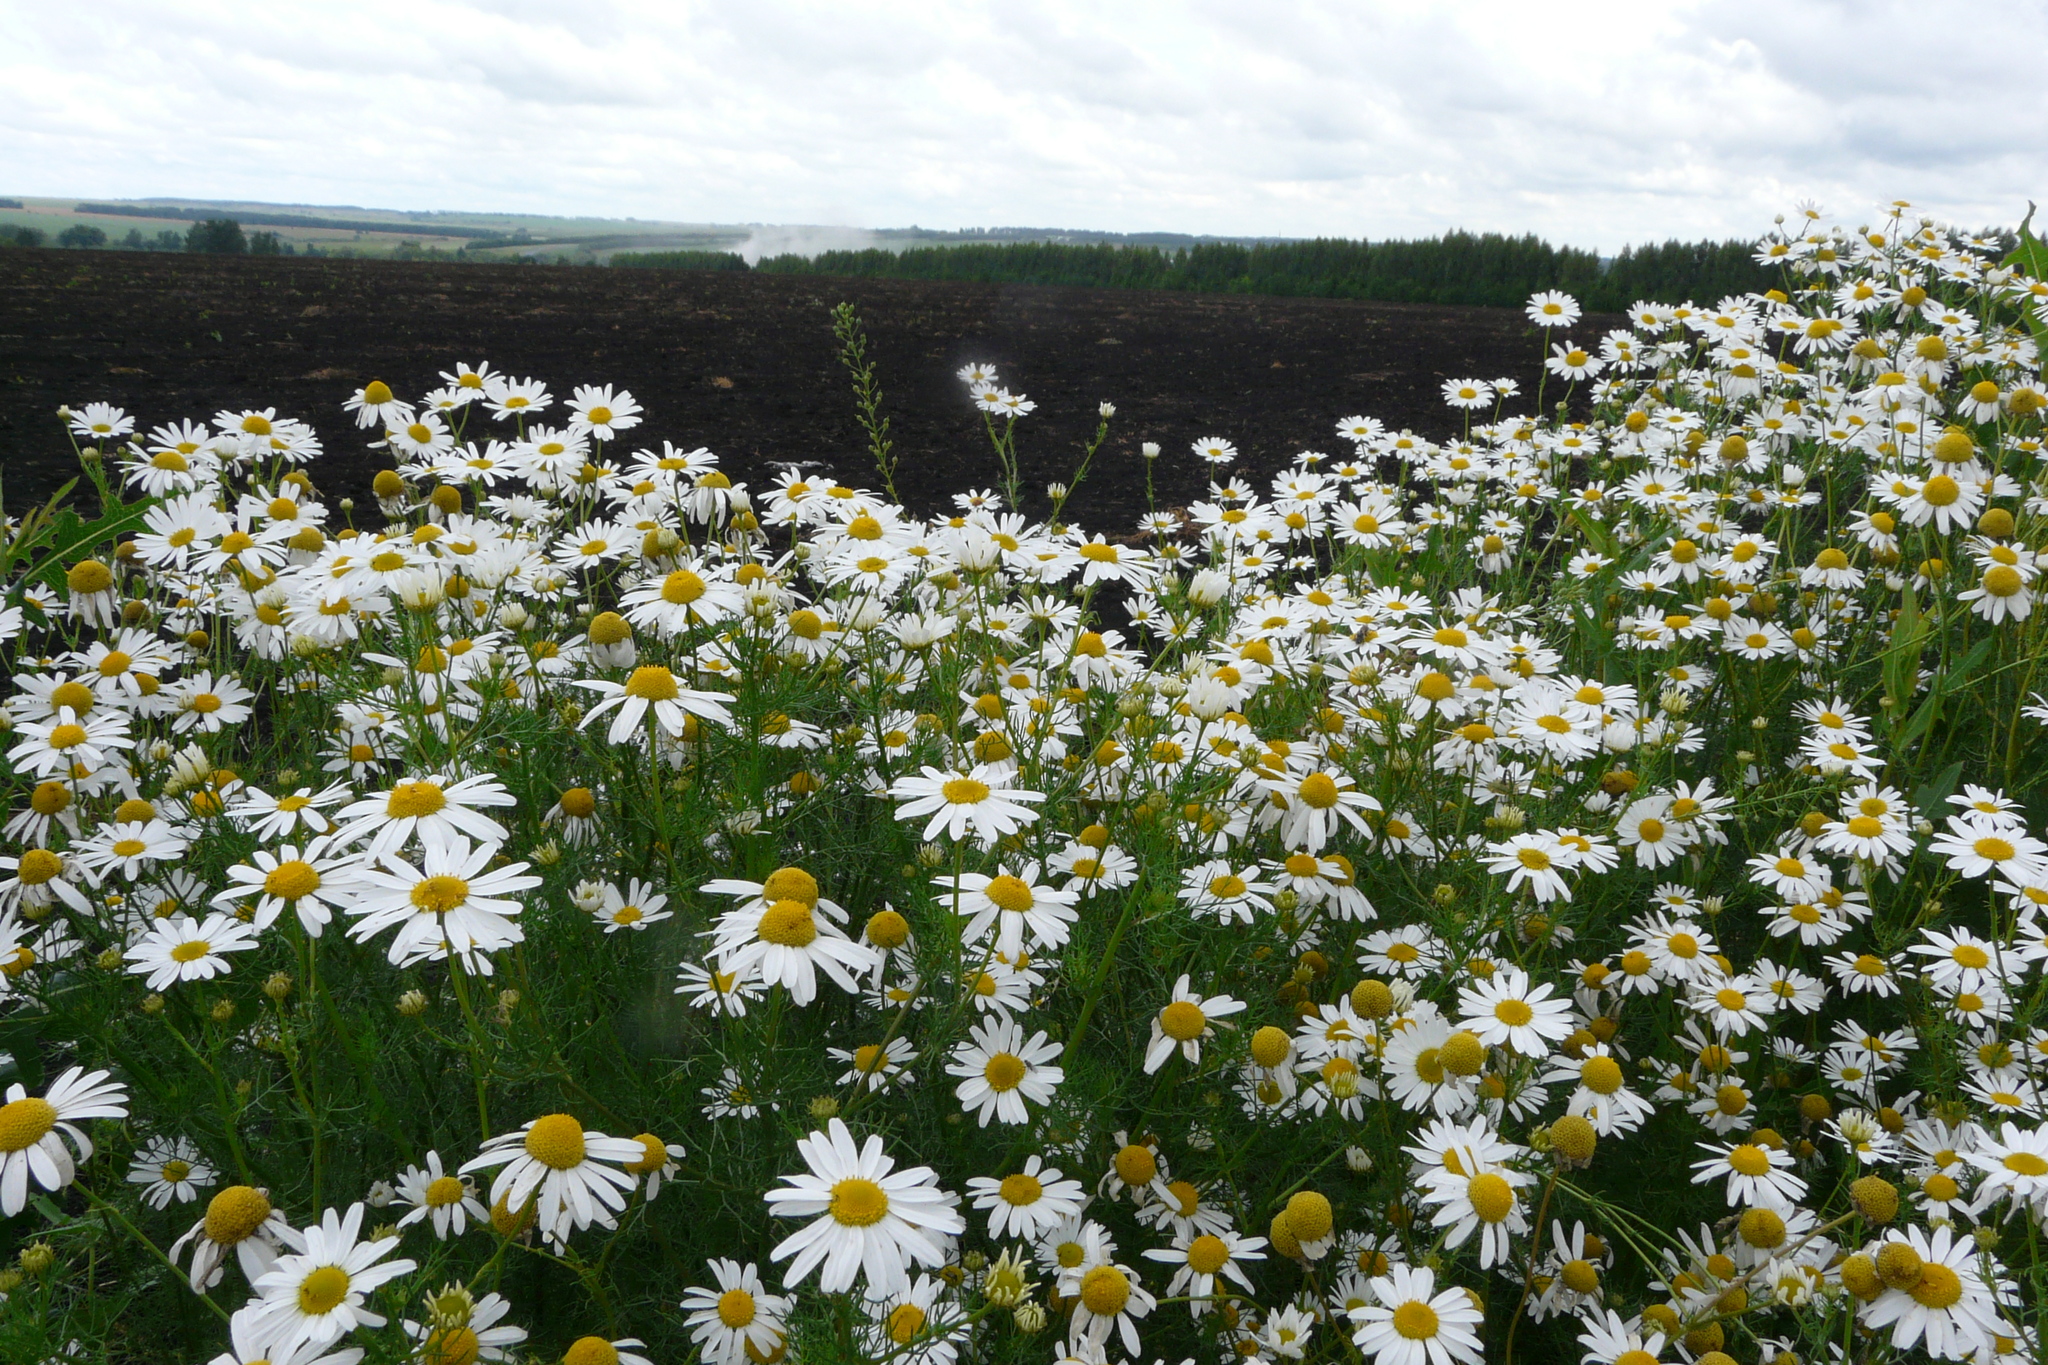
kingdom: Plantae
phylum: Tracheophyta
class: Magnoliopsida
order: Asterales
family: Asteraceae
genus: Tripleurospermum
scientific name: Tripleurospermum inodorum
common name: Scentless mayweed
